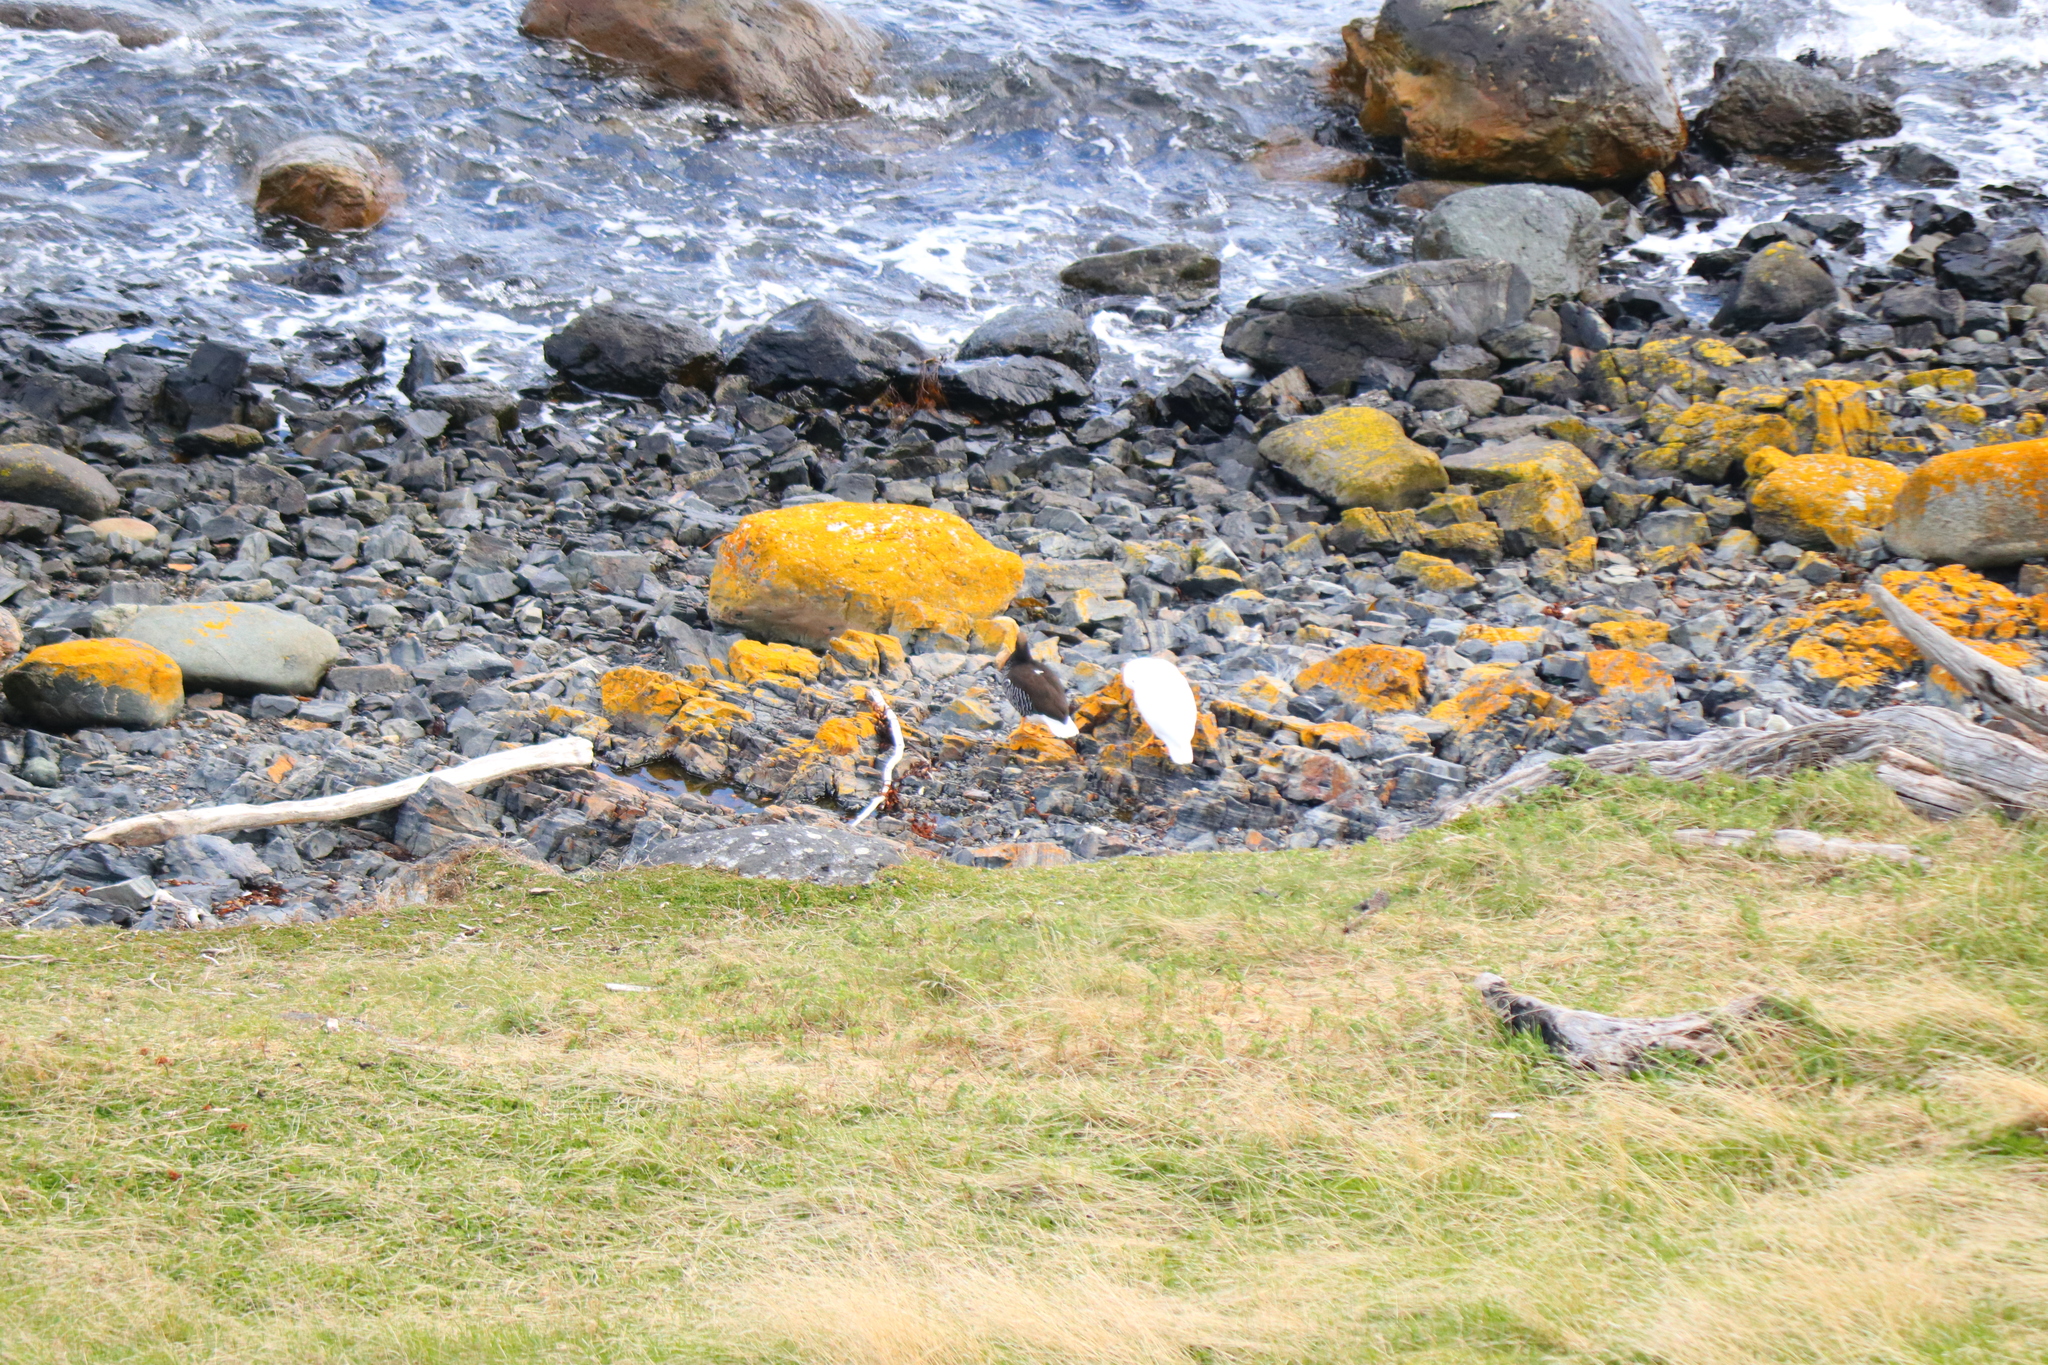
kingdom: Animalia
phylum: Chordata
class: Aves
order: Anseriformes
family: Anatidae
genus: Chloephaga
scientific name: Chloephaga hybrida
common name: Kelp goose
